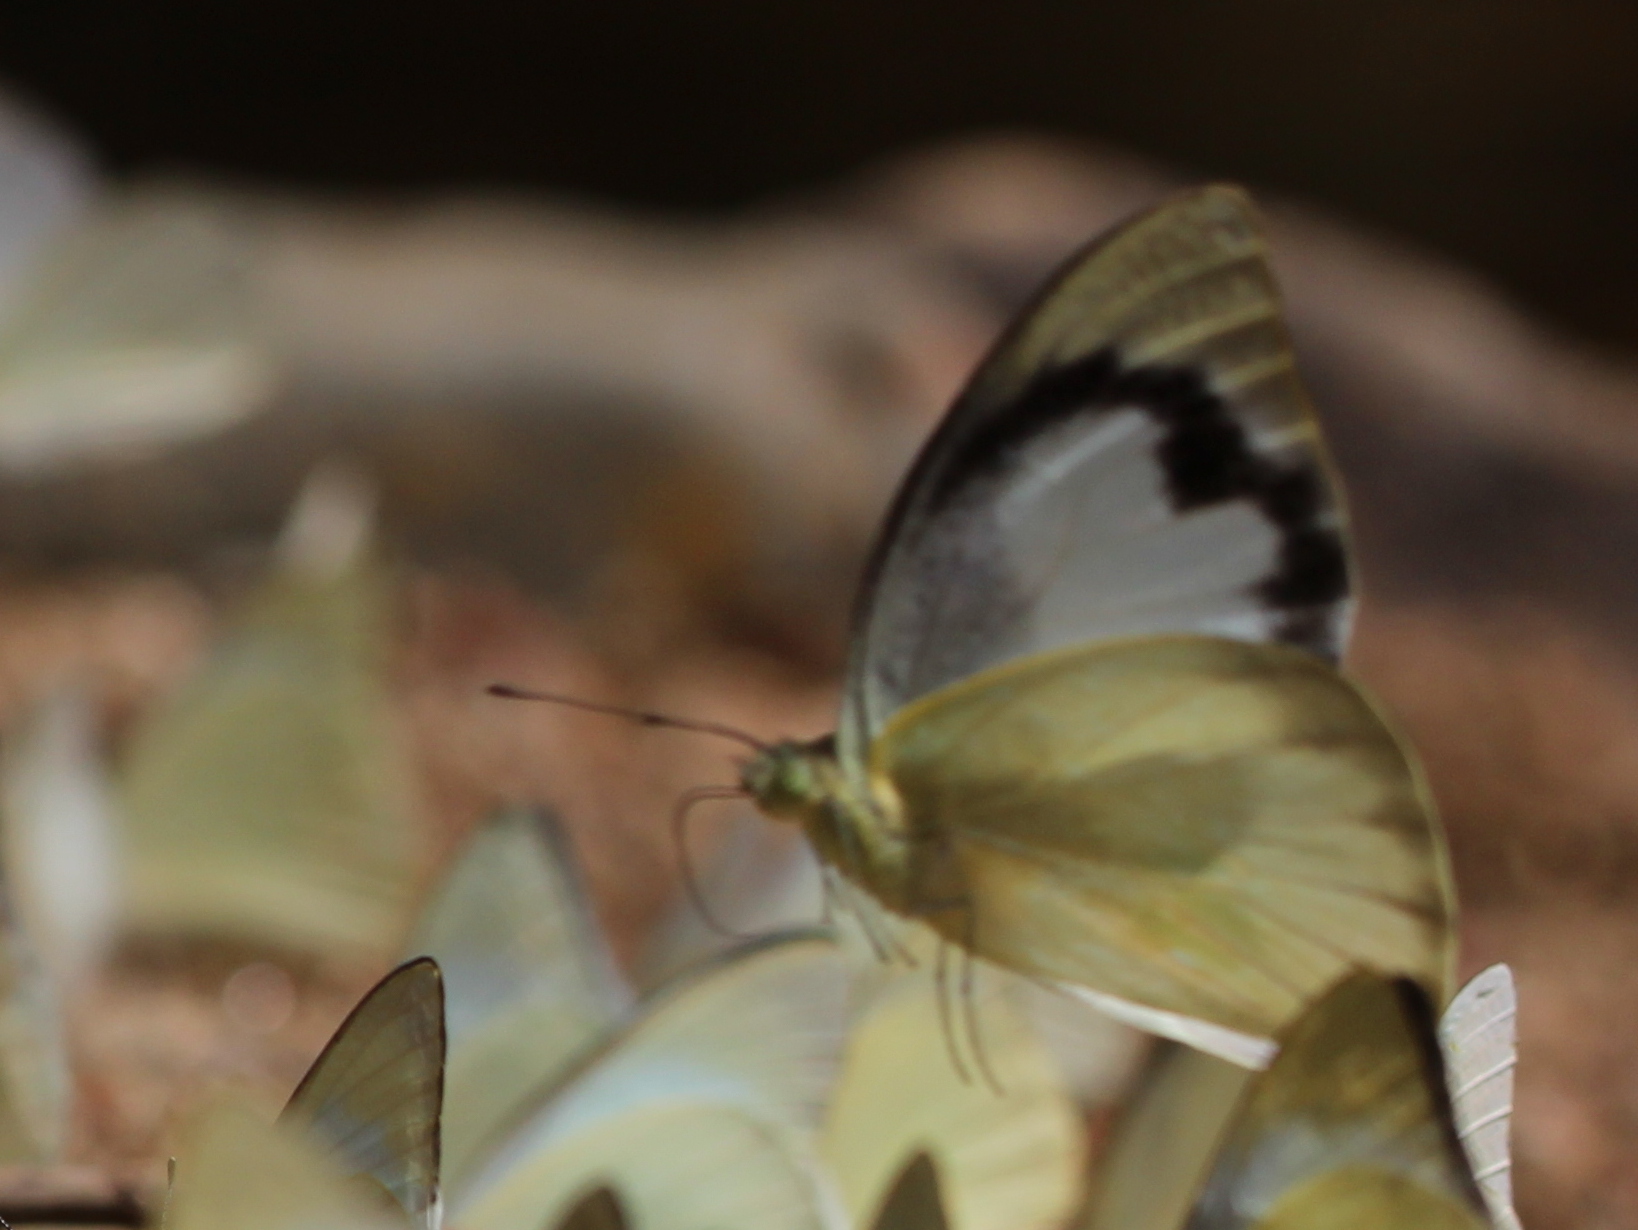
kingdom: Animalia
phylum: Arthropoda
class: Insecta
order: Lepidoptera
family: Pieridae
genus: Appias
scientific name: Appias albina
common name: Common albatross
